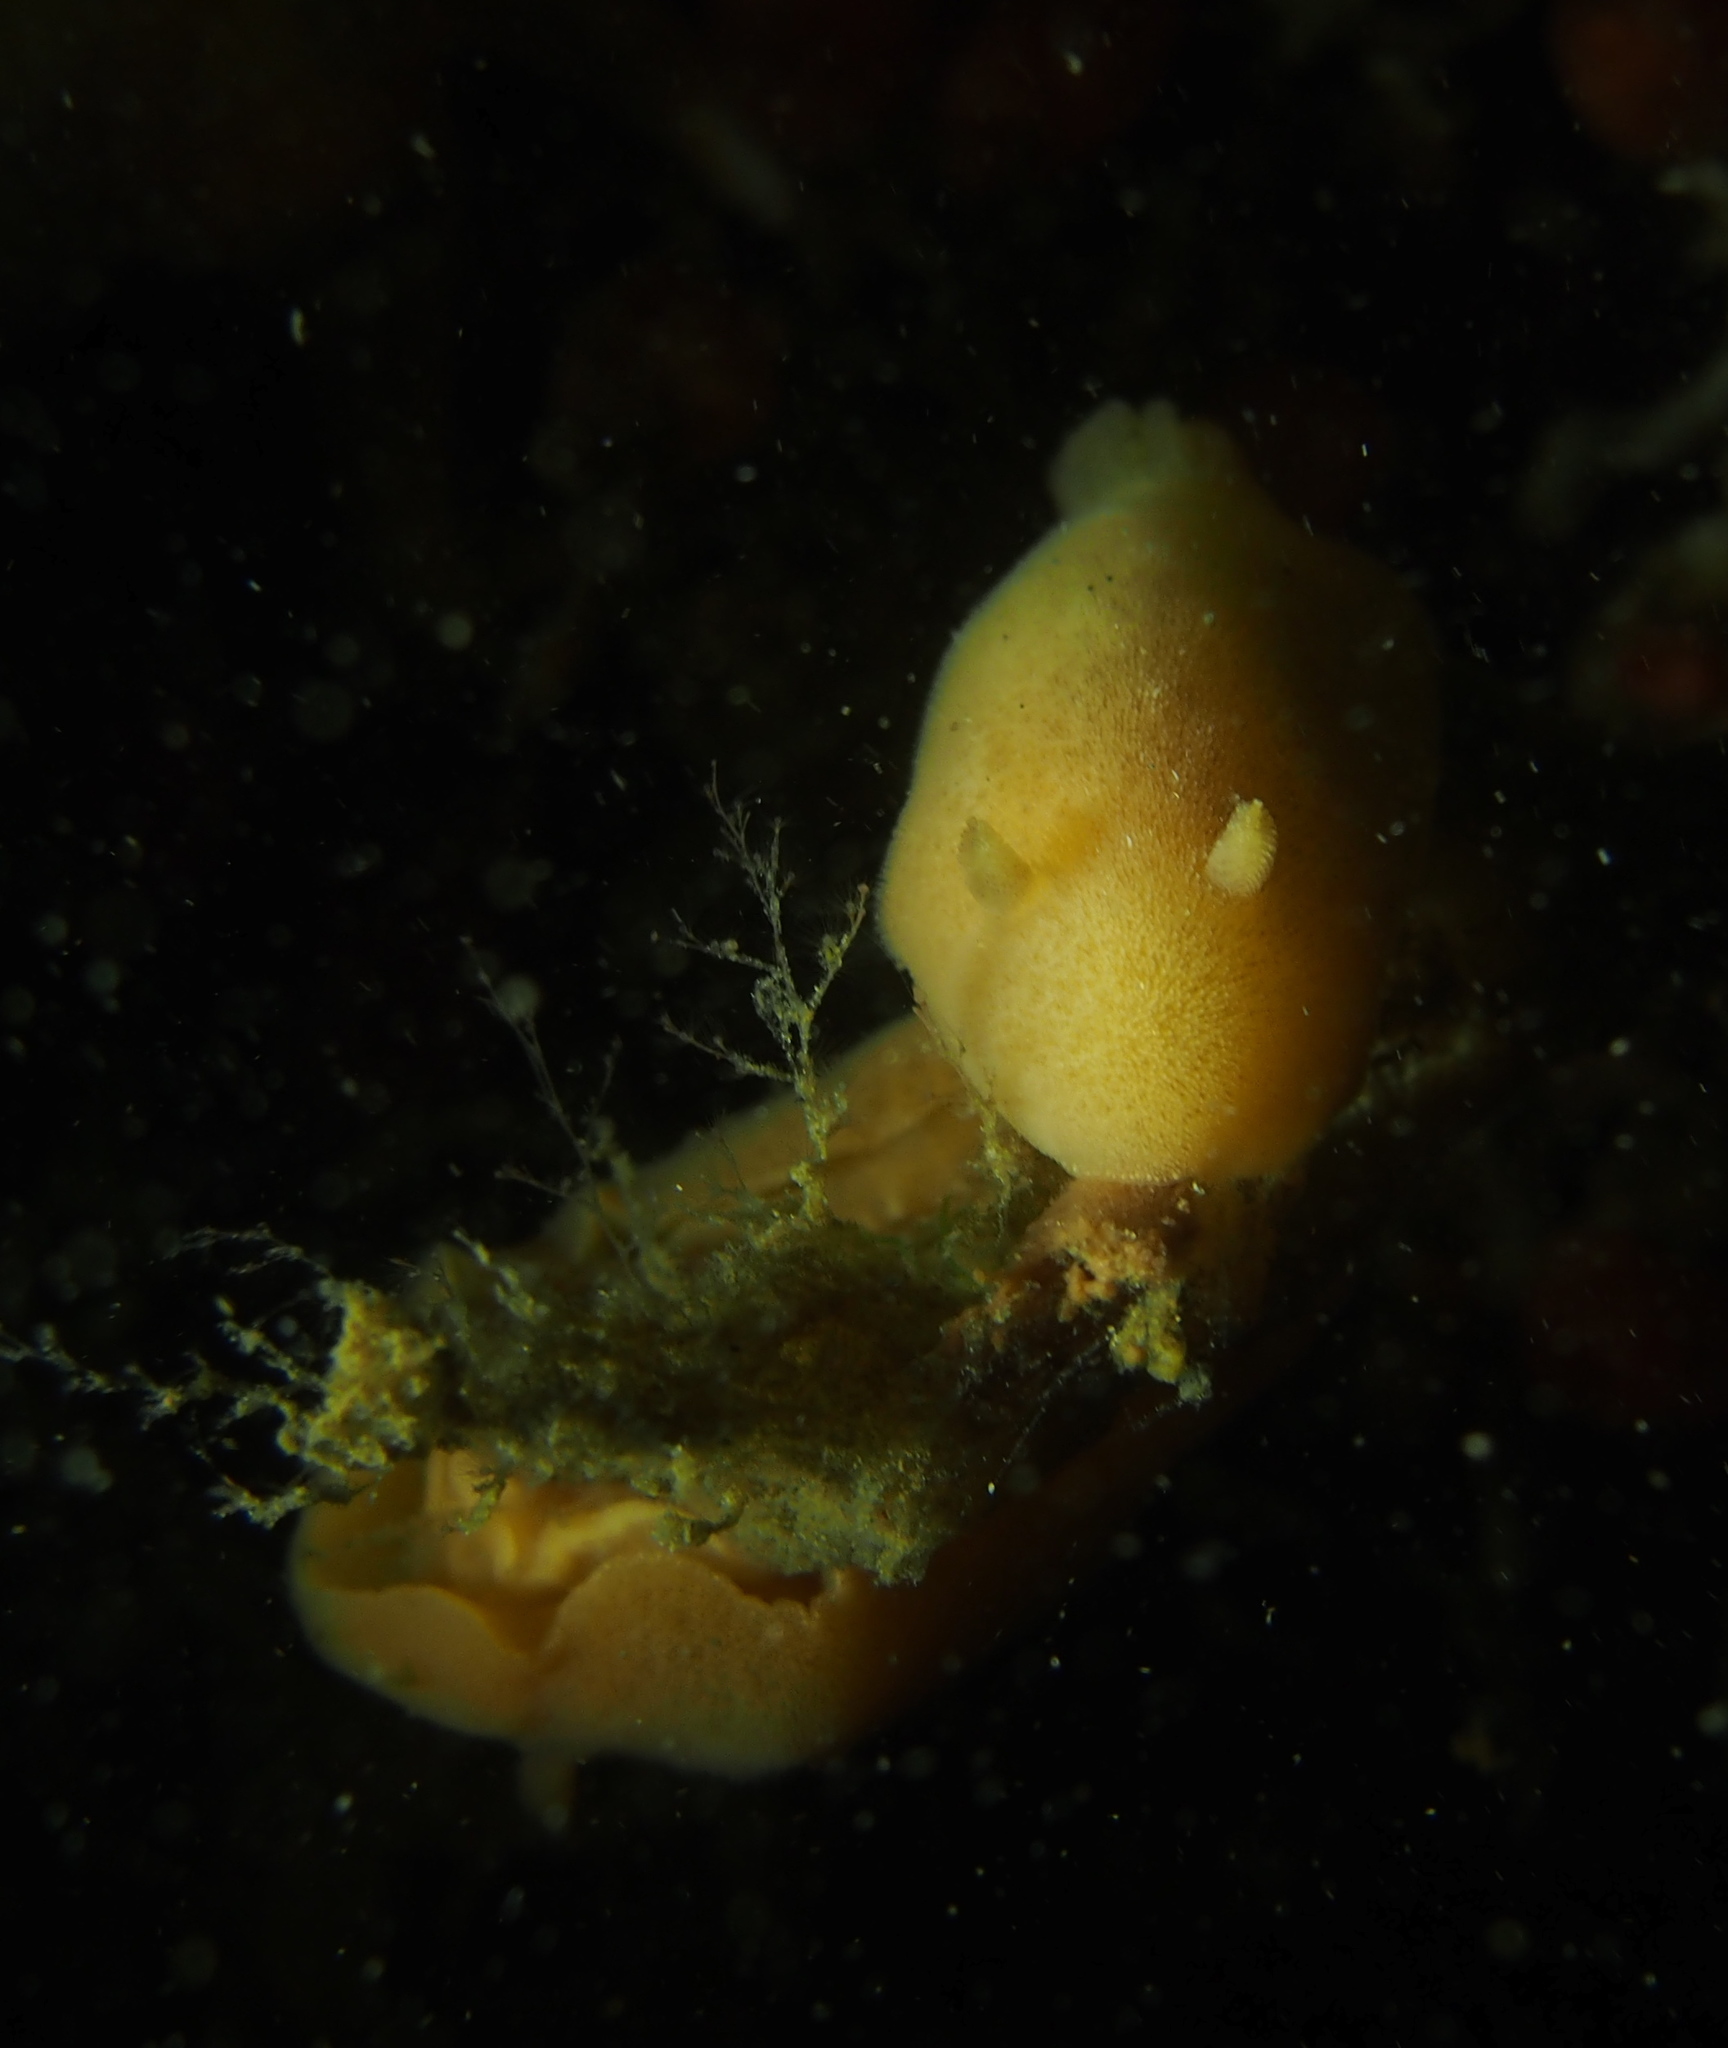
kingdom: Animalia
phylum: Mollusca
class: Gastropoda
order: Nudibranchia
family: Discodorididae
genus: Jorunna
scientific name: Jorunna tomentosa
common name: Grey sea slug
